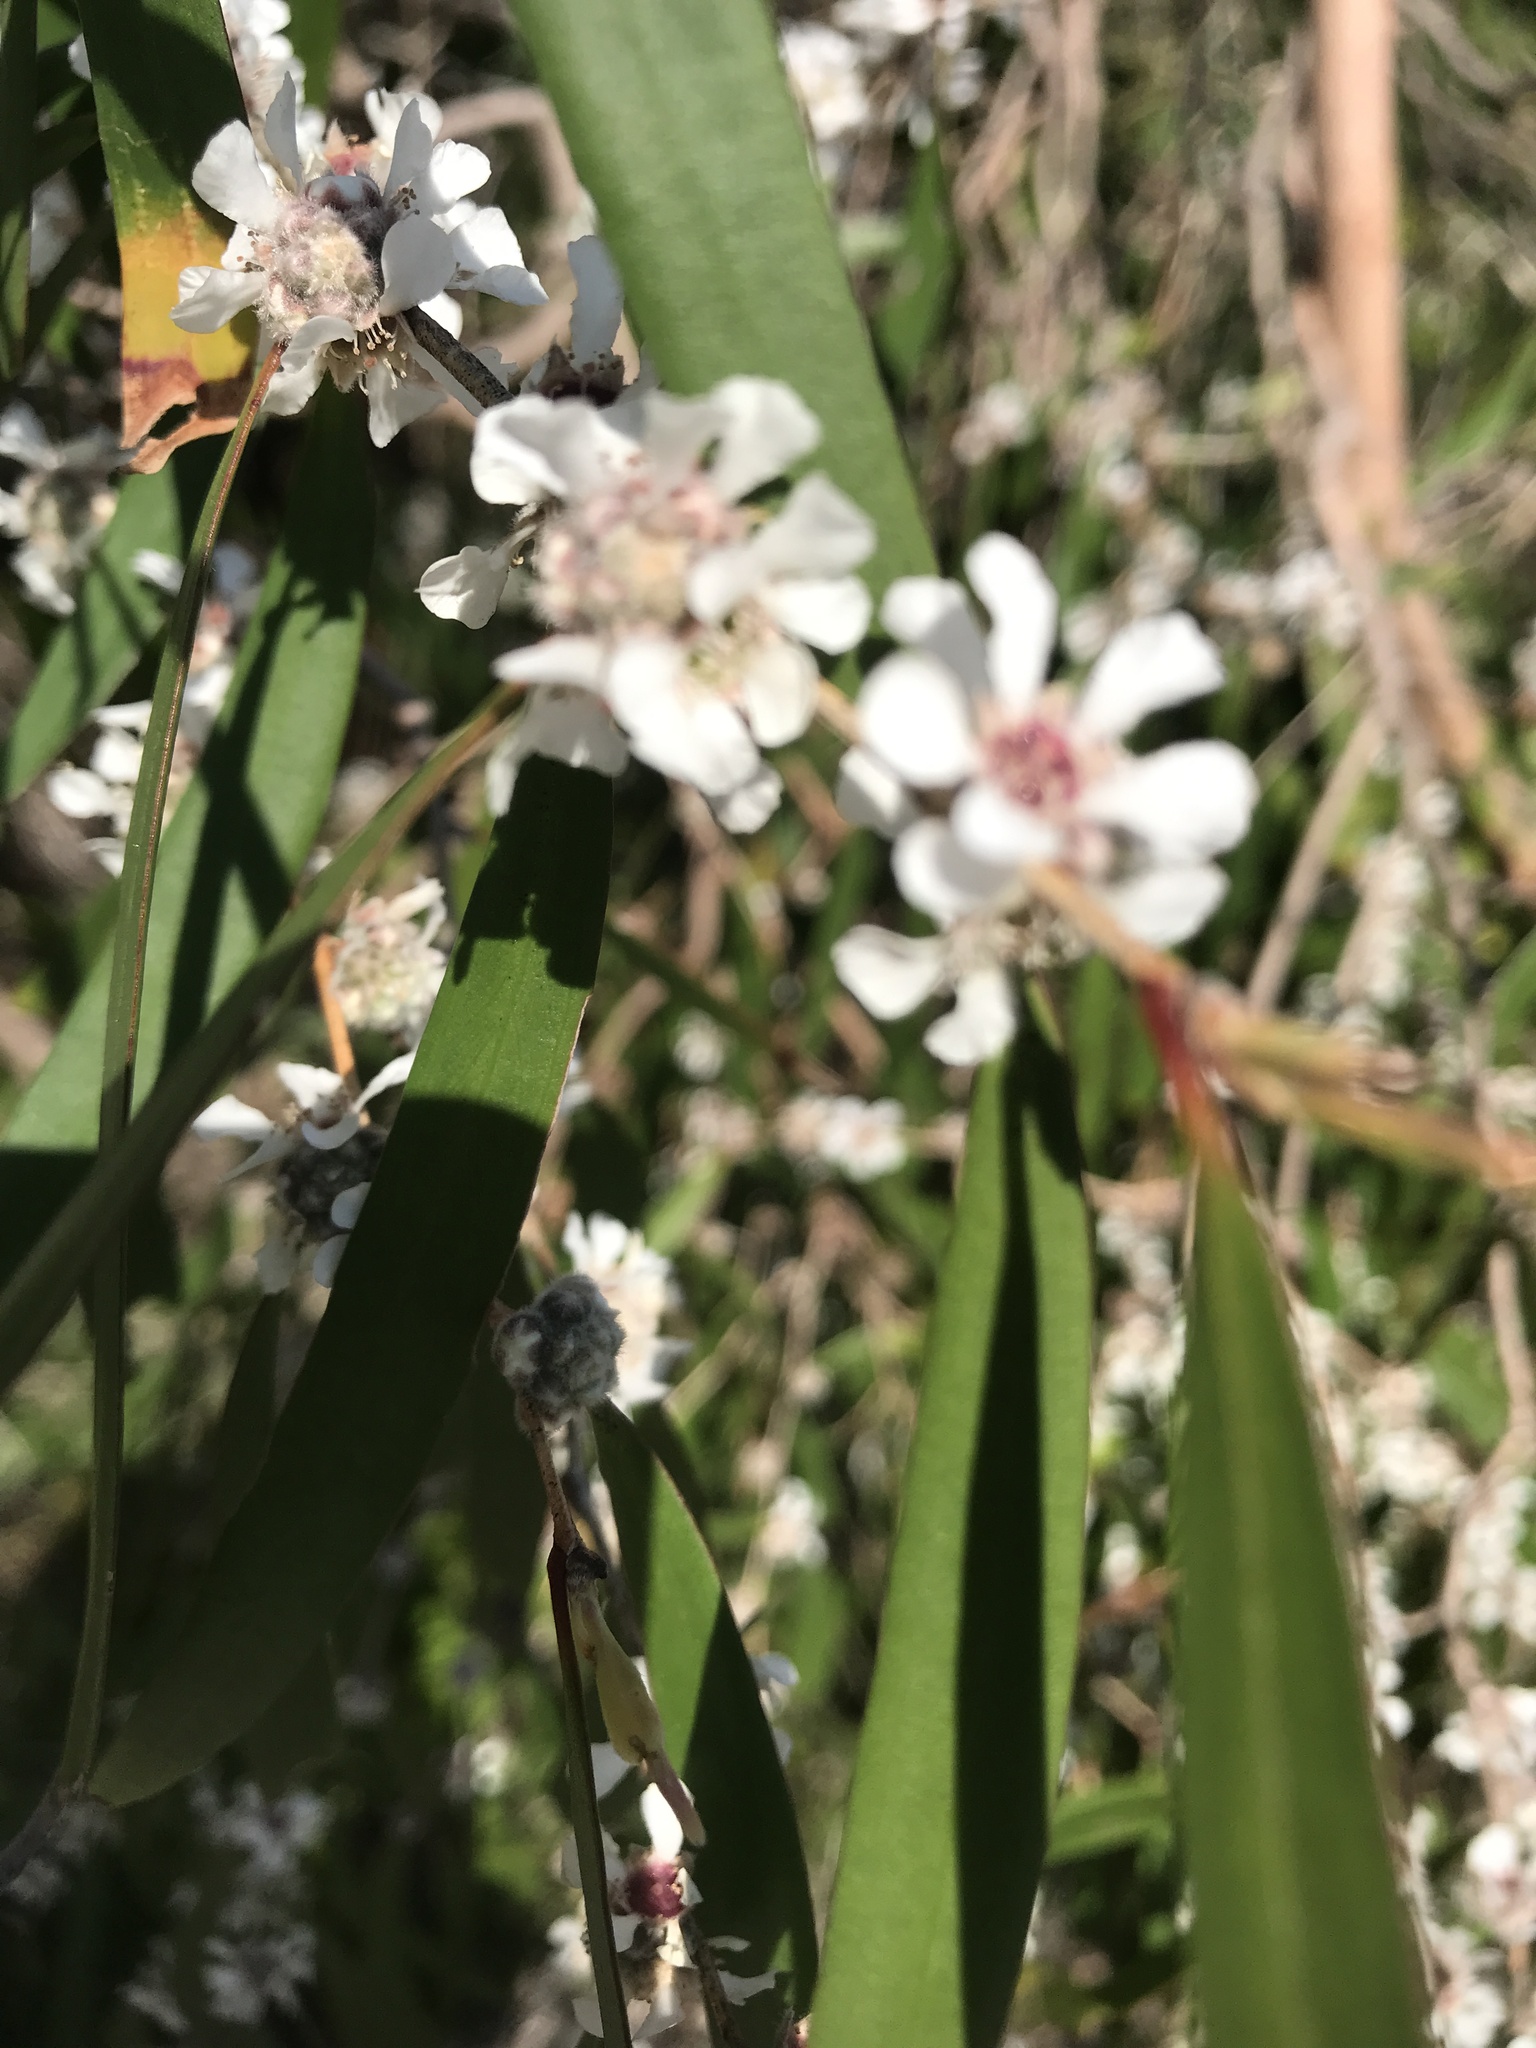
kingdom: Plantae
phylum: Tracheophyta
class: Magnoliopsida
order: Myrtales
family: Myrtaceae
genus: Agonis
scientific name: Agonis flexuosa
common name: Willow myrtle
